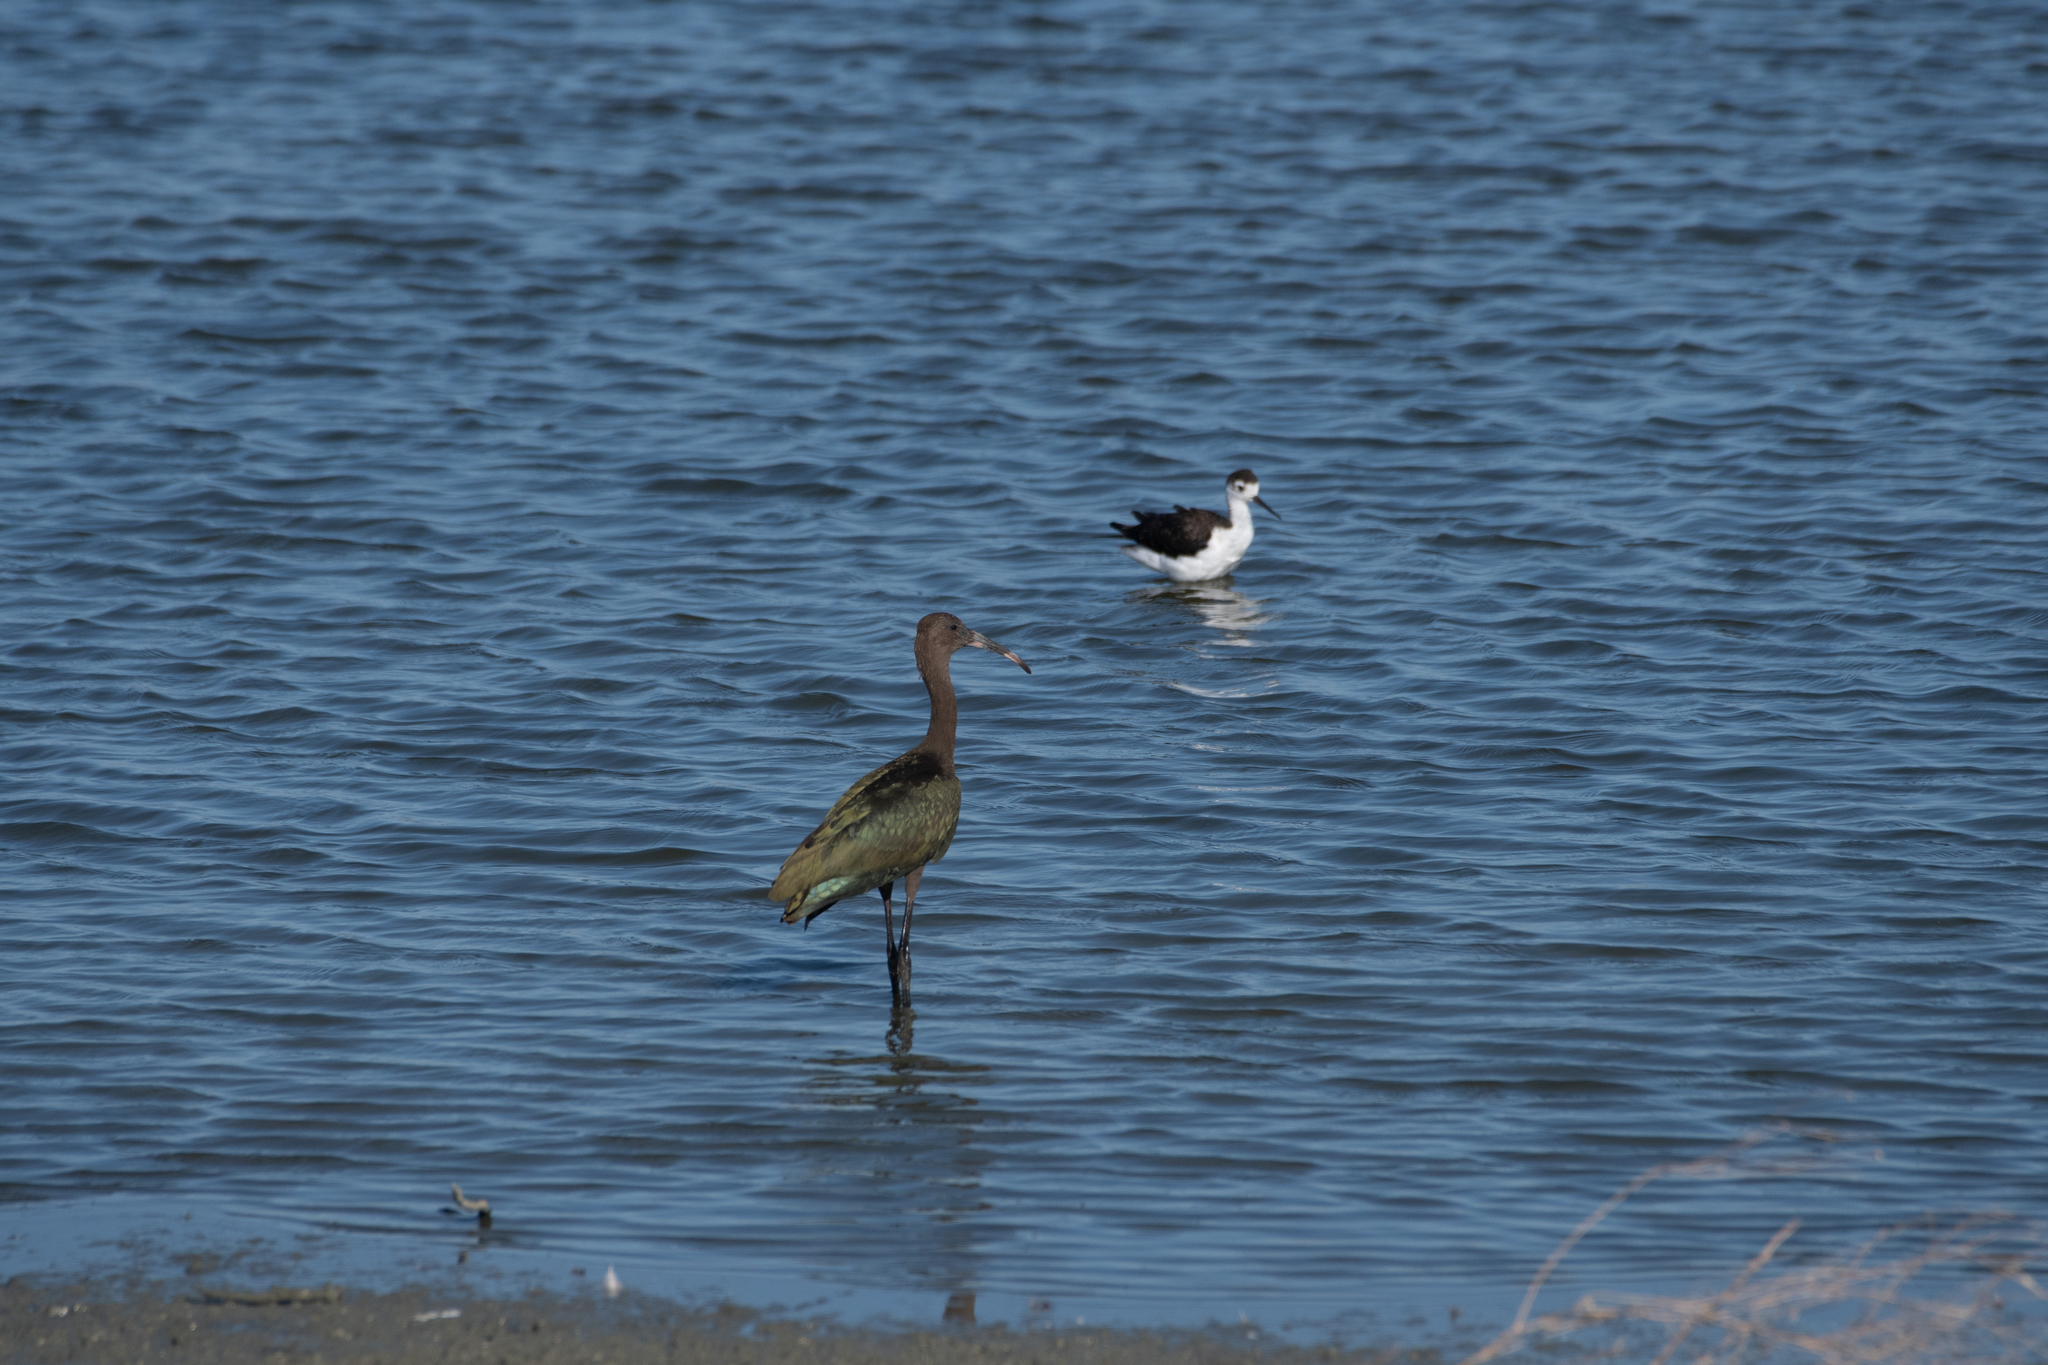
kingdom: Animalia
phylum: Chordata
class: Aves
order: Pelecaniformes
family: Threskiornithidae
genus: Plegadis
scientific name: Plegadis chihi
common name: White-faced ibis
